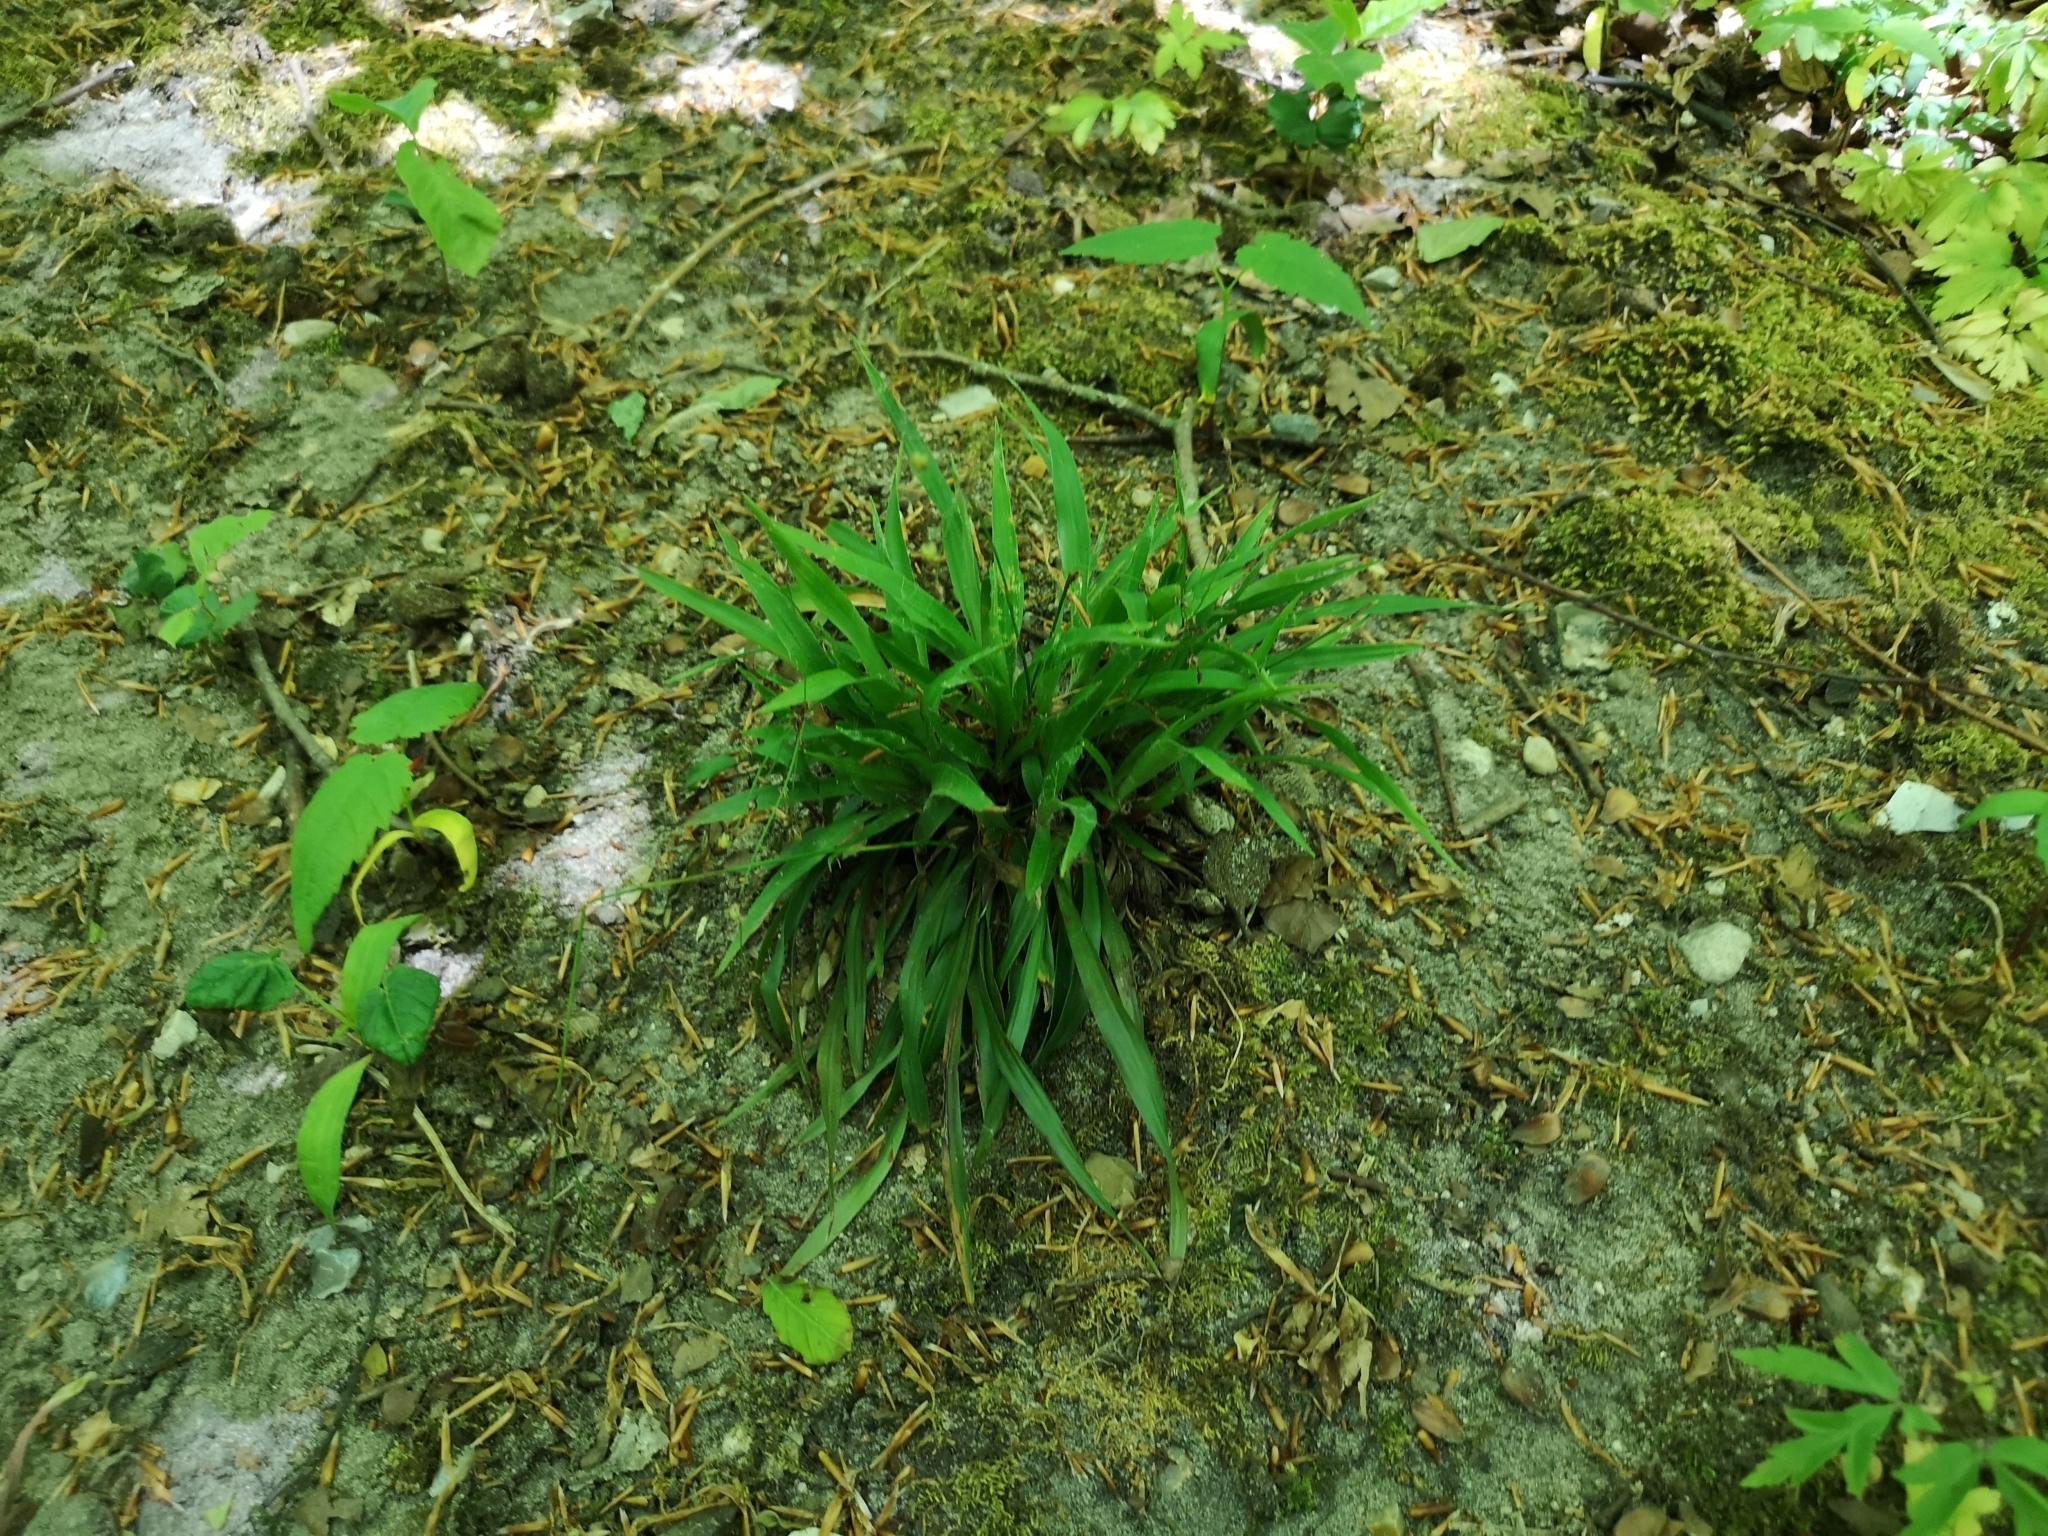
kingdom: Plantae
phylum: Tracheophyta
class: Liliopsida
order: Poales
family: Juncaceae
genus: Luzula
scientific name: Luzula pilosa
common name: Hairy wood-rush
